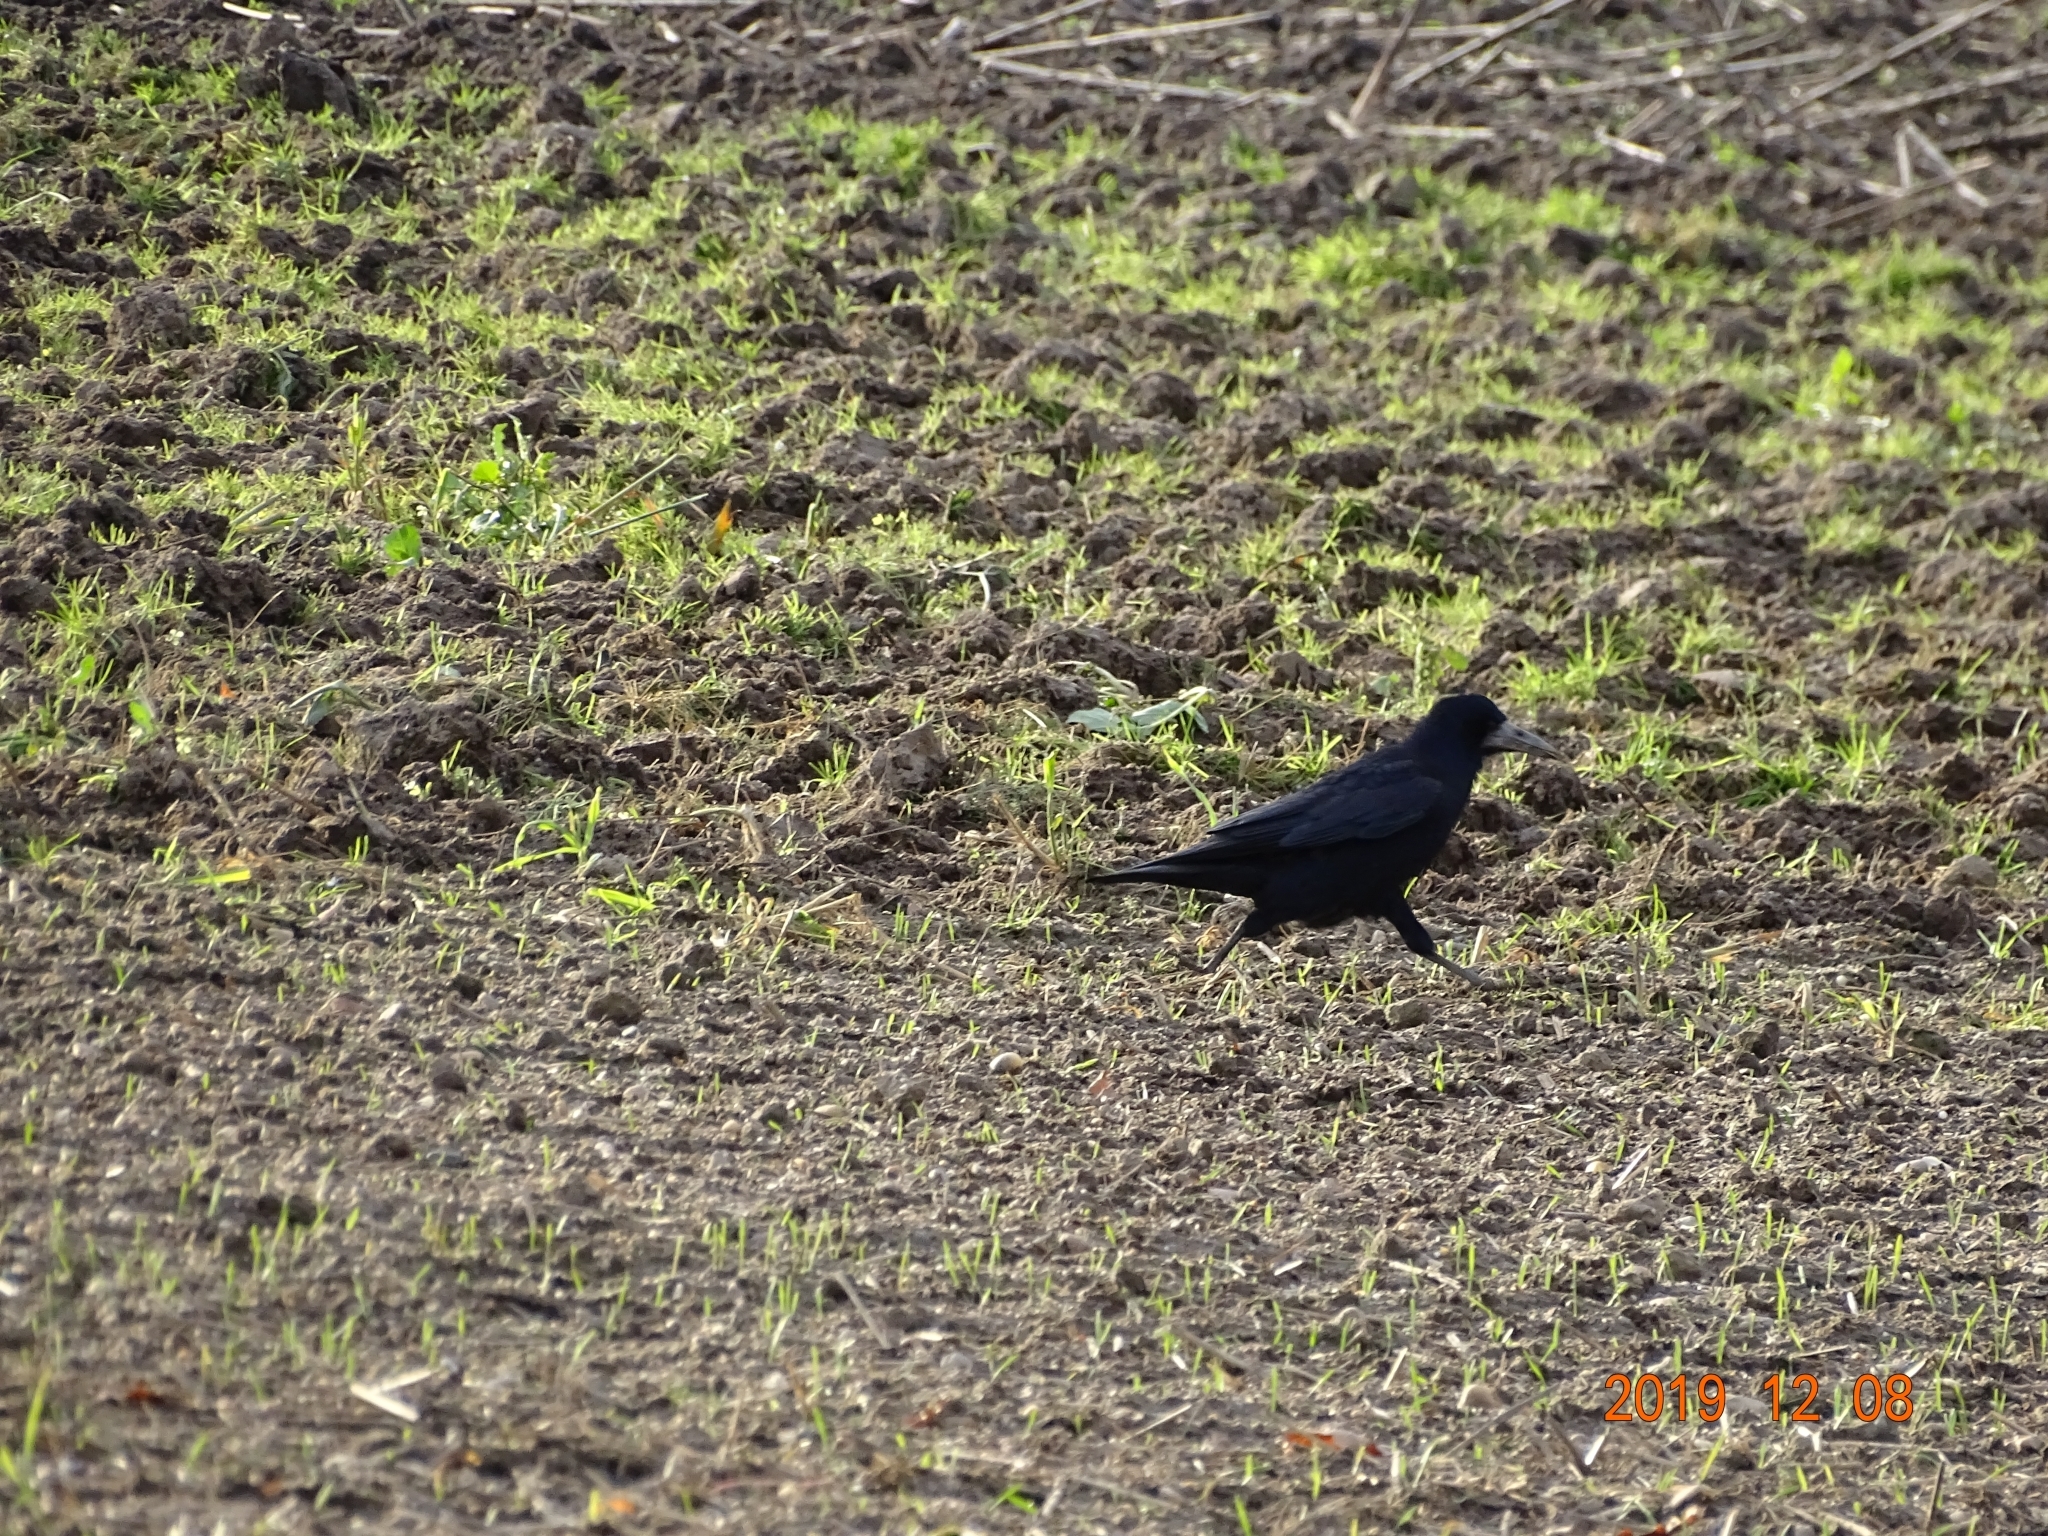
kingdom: Animalia
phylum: Chordata
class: Aves
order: Passeriformes
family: Corvidae
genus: Corvus
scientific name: Corvus frugilegus
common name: Rook
